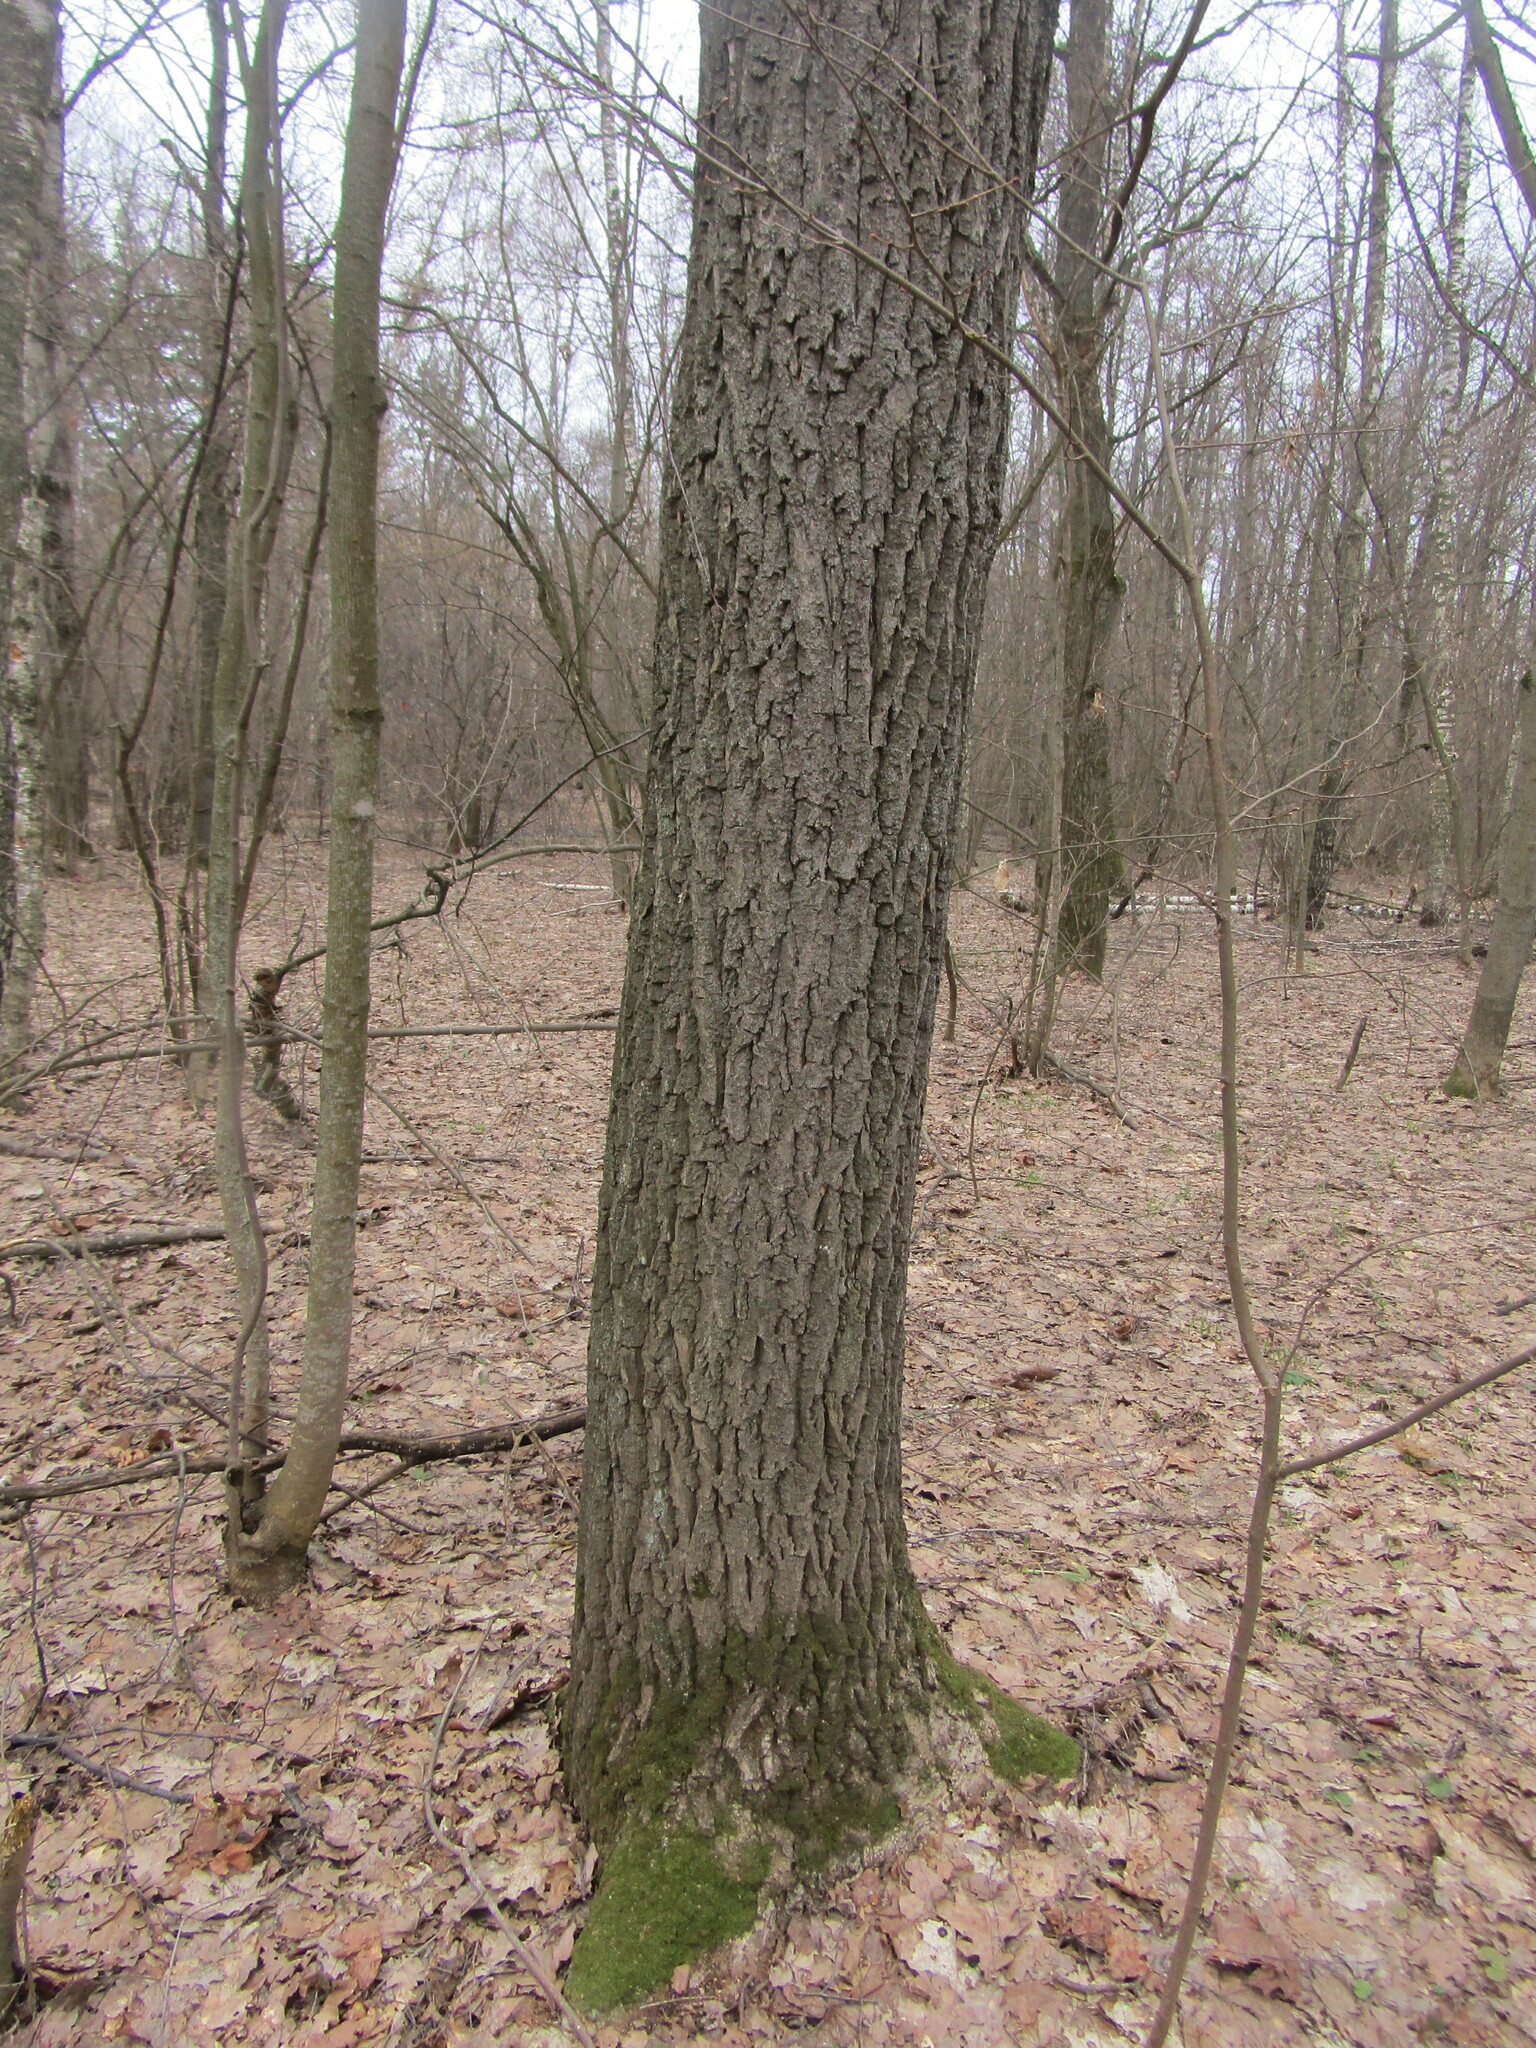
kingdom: Plantae
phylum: Tracheophyta
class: Magnoliopsida
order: Fagales
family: Fagaceae
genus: Quercus
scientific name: Quercus robur
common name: Pedunculate oak
